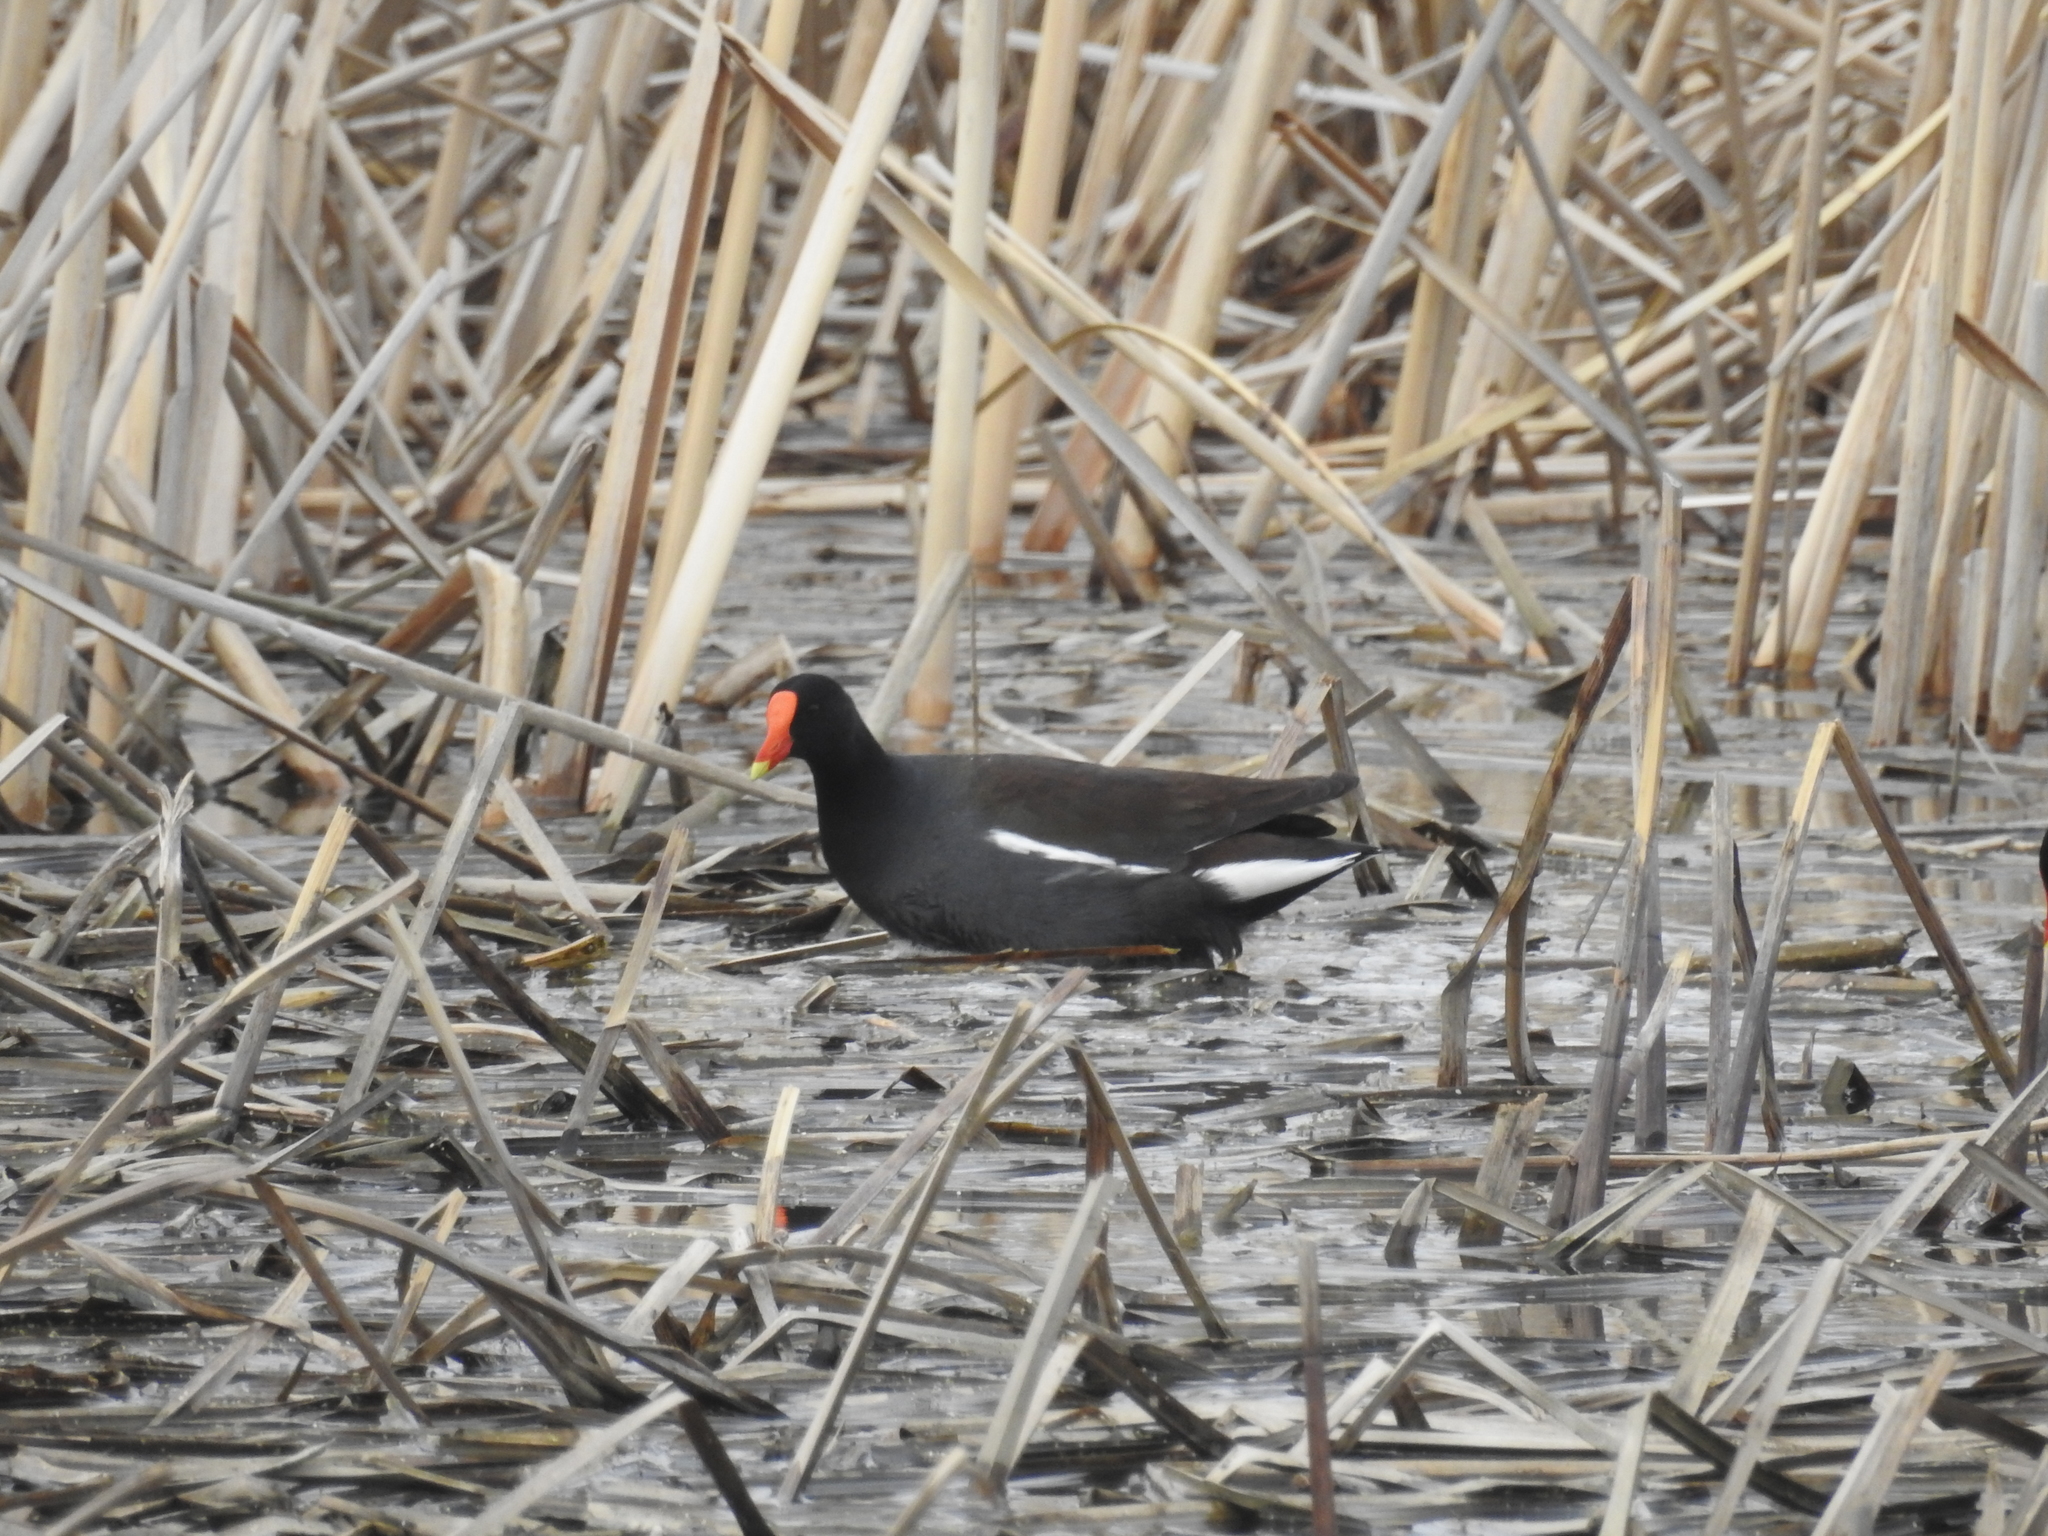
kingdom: Animalia
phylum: Chordata
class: Aves
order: Gruiformes
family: Rallidae
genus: Gallinula
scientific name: Gallinula chloropus
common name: Common moorhen
